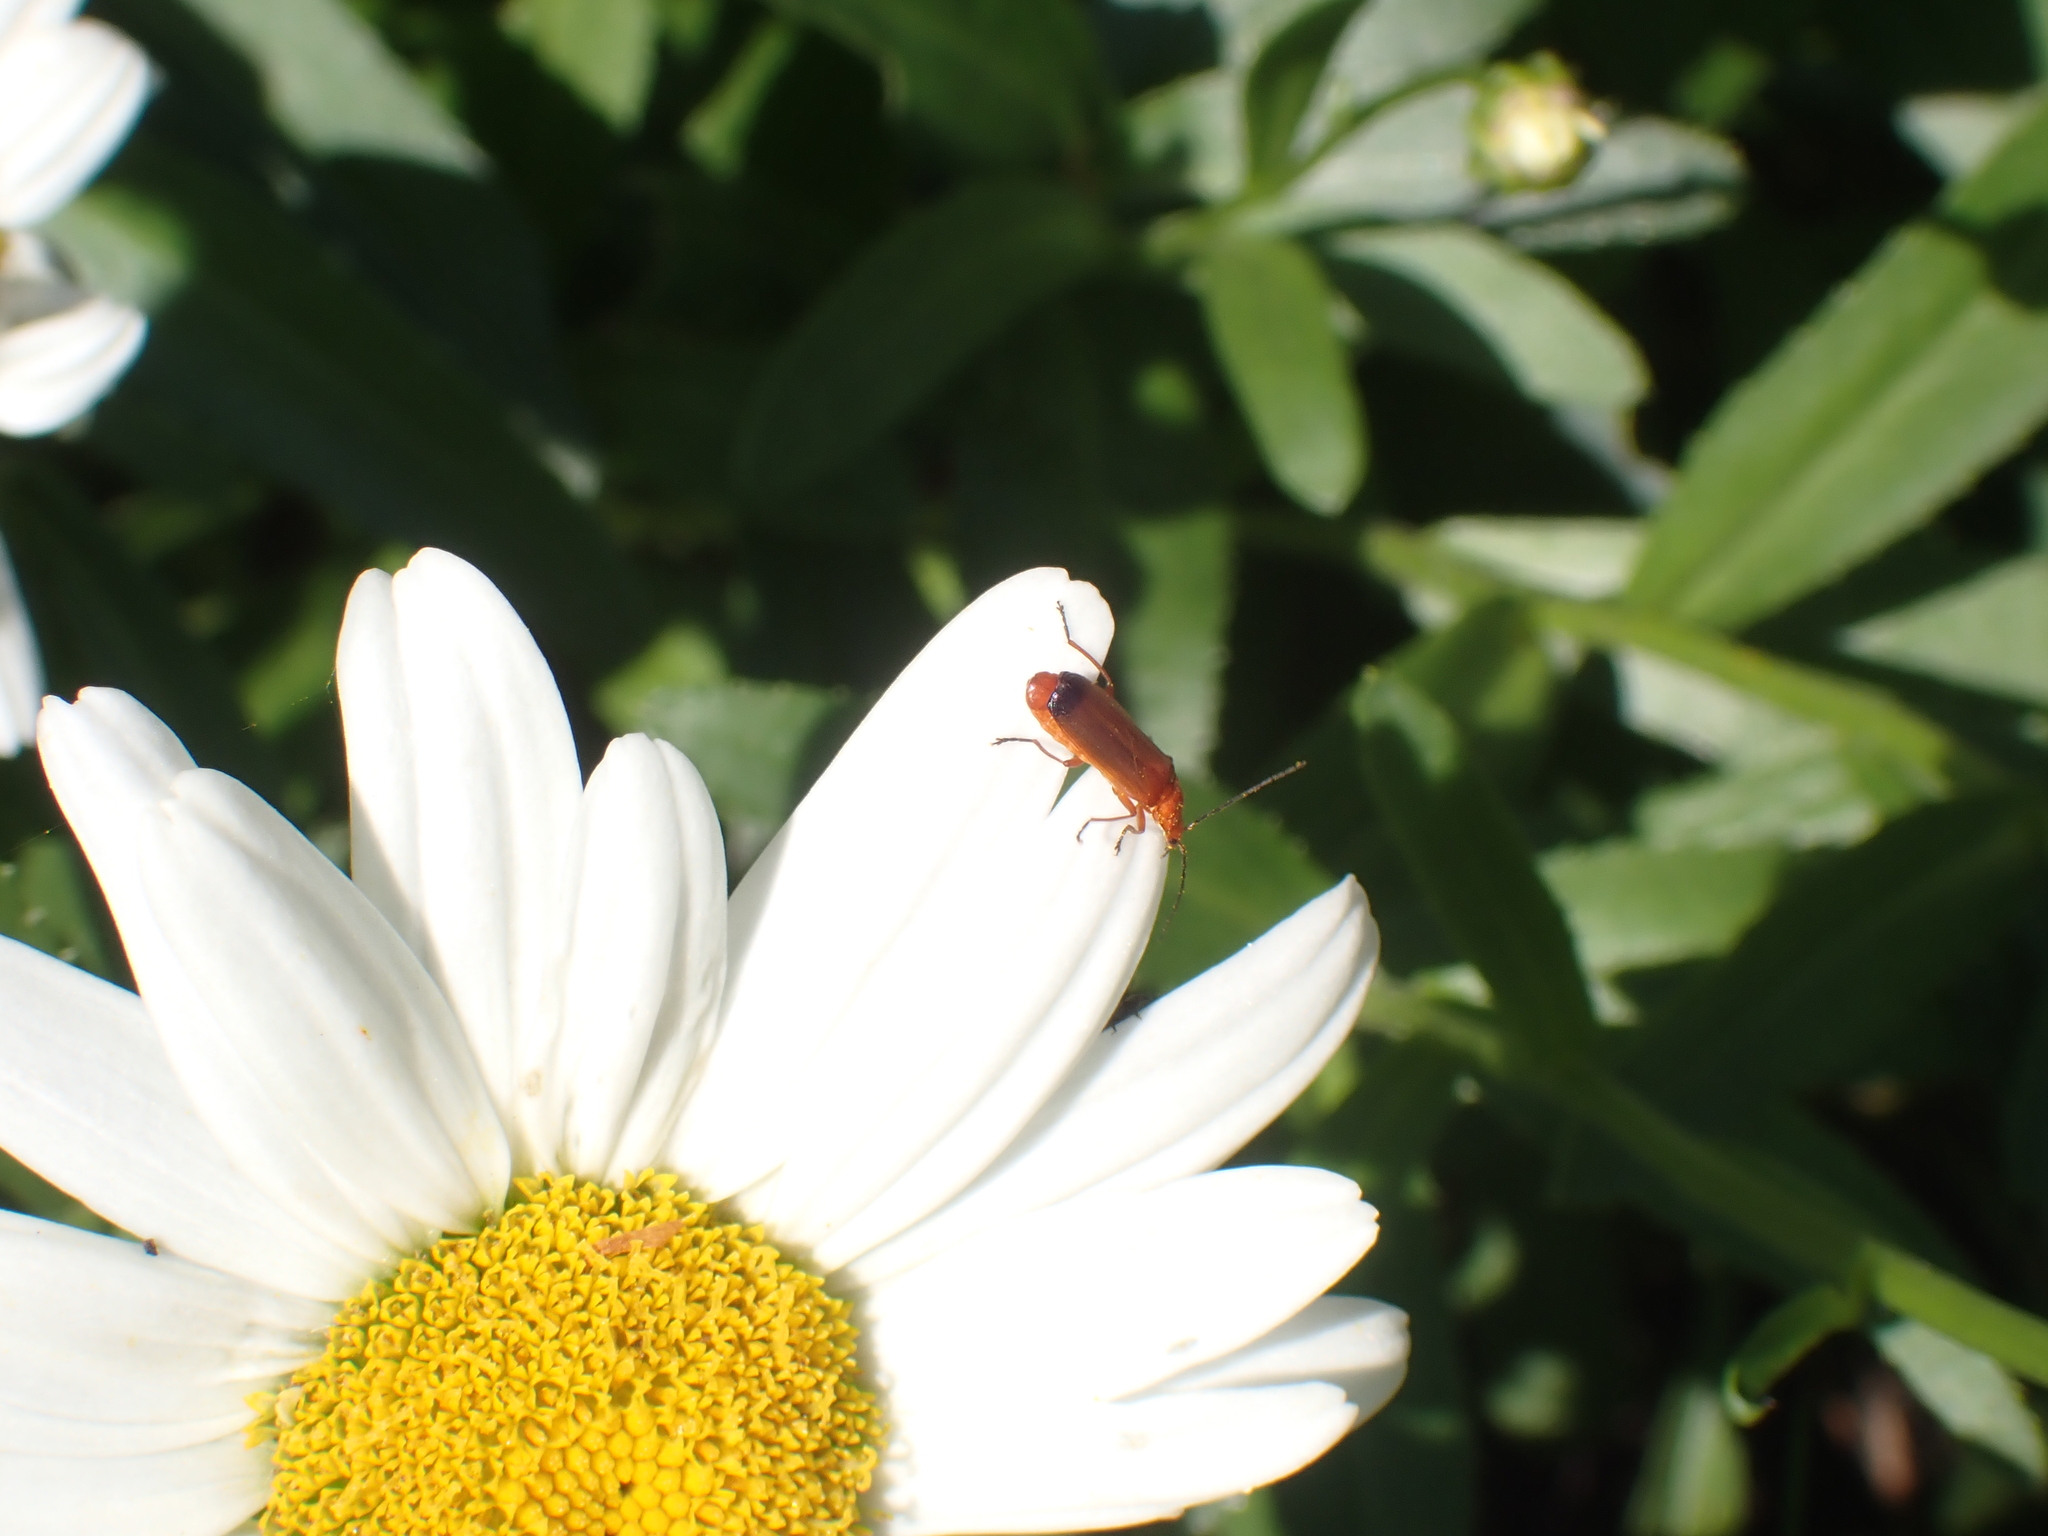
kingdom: Animalia
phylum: Arthropoda
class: Insecta
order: Coleoptera
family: Cantharidae
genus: Rhagonycha
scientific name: Rhagonycha fulva
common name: Common red soldier beetle
